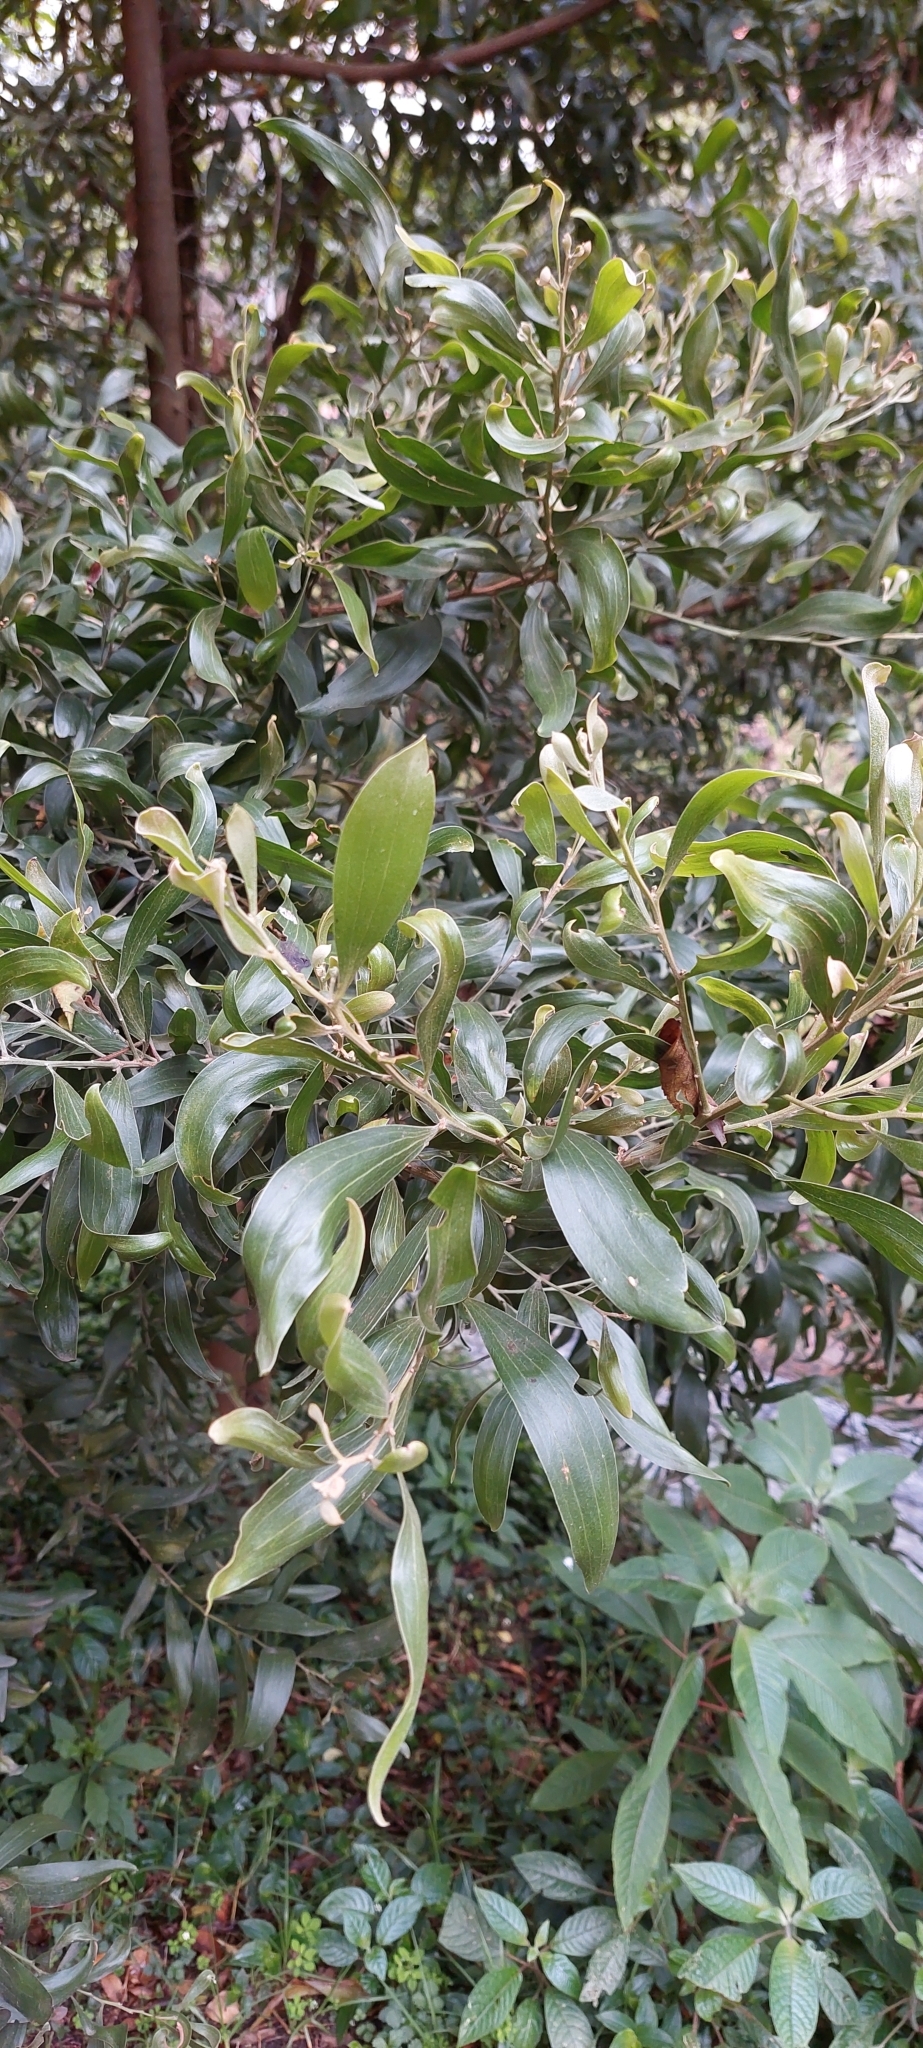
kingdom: Plantae
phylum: Tracheophyta
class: Magnoliopsida
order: Fabales
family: Fabaceae
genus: Acacia
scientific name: Acacia melanoxylon
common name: Blackwood
